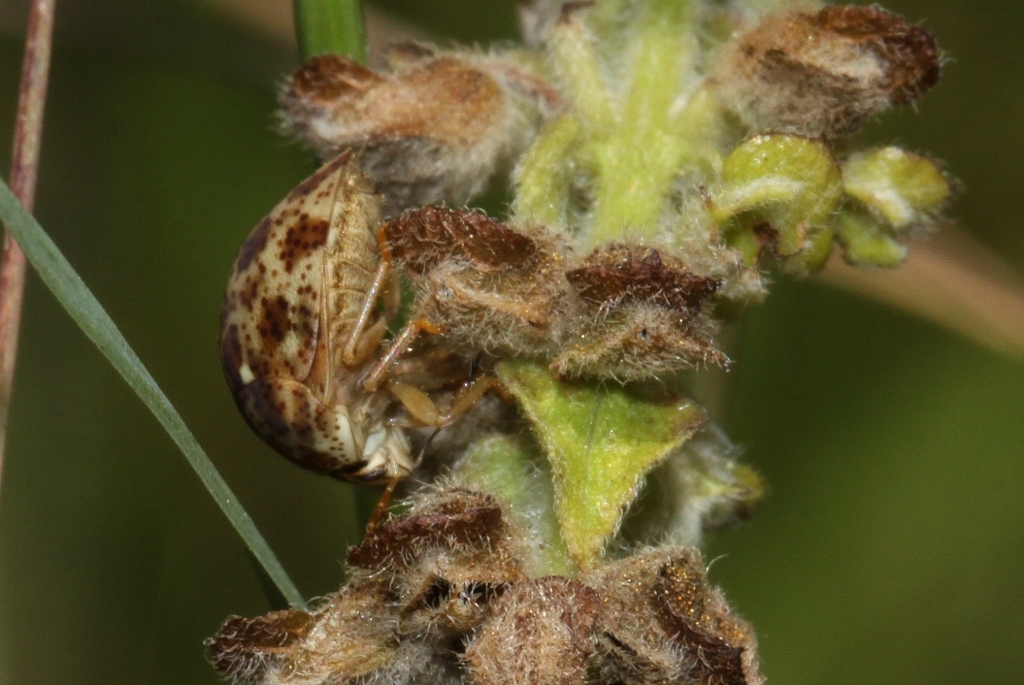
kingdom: Animalia
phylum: Arthropoda
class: Insecta
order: Hemiptera
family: Scutelleridae
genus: Sphaerocoris
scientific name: Sphaerocoris
